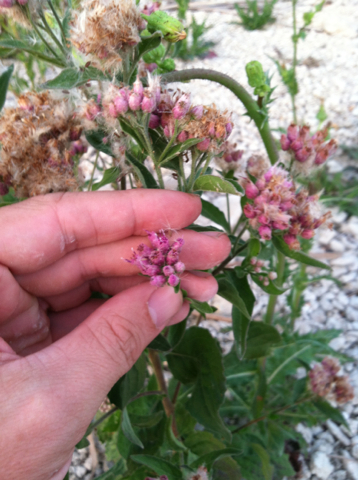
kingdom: Plantae
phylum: Tracheophyta
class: Magnoliopsida
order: Asterales
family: Asteraceae
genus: Pluchea
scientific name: Pluchea camphorata
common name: Camphor pluchea
